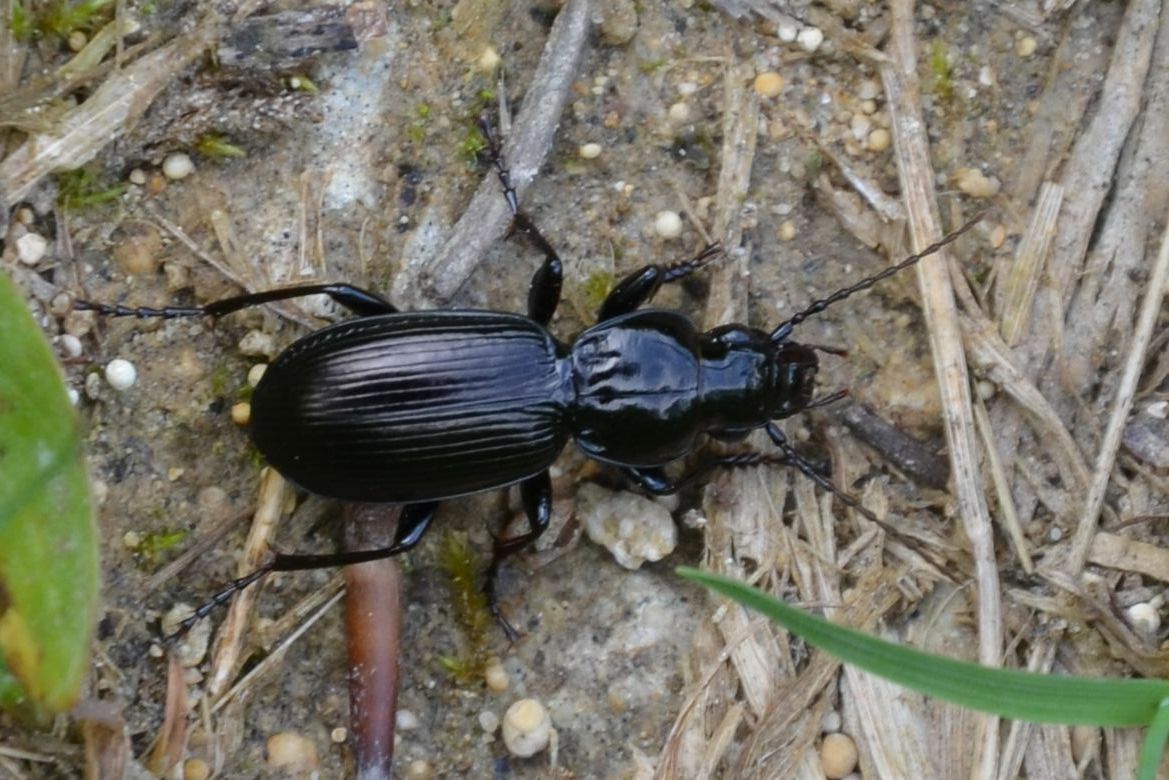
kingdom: Animalia
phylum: Arthropoda
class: Insecta
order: Coleoptera
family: Carabidae
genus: Pterostichus
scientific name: Pterostichus madidus
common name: Black clock
